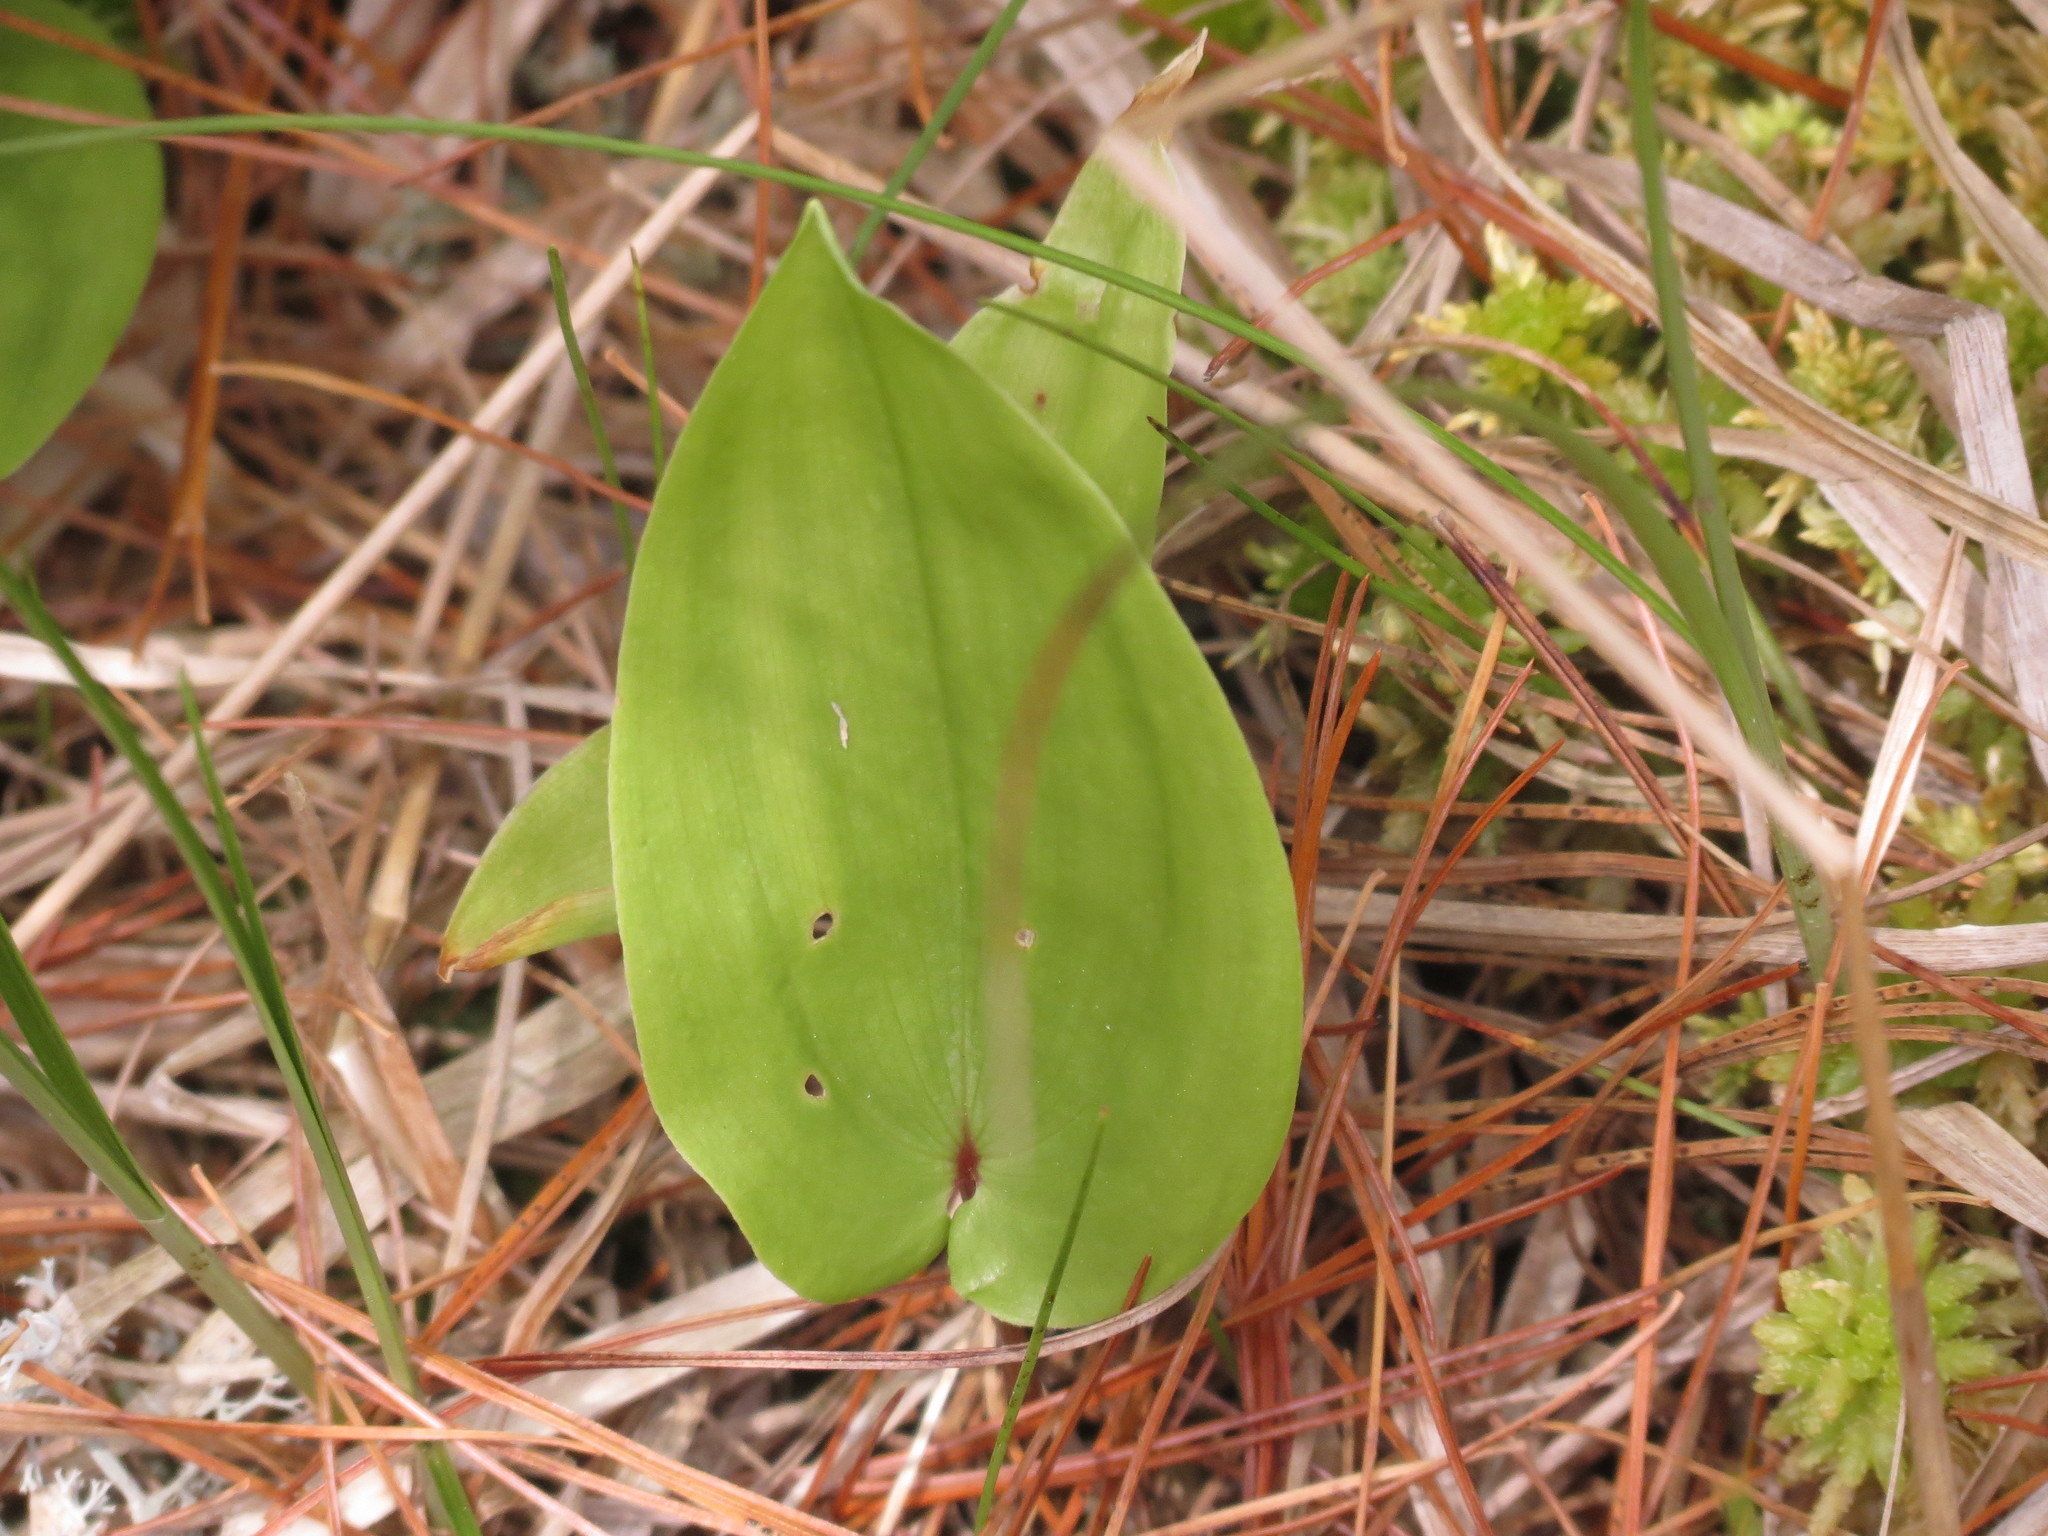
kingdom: Plantae
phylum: Tracheophyta
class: Liliopsida
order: Asparagales
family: Asparagaceae
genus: Maianthemum
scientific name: Maianthemum canadense
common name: False lily-of-the-valley
